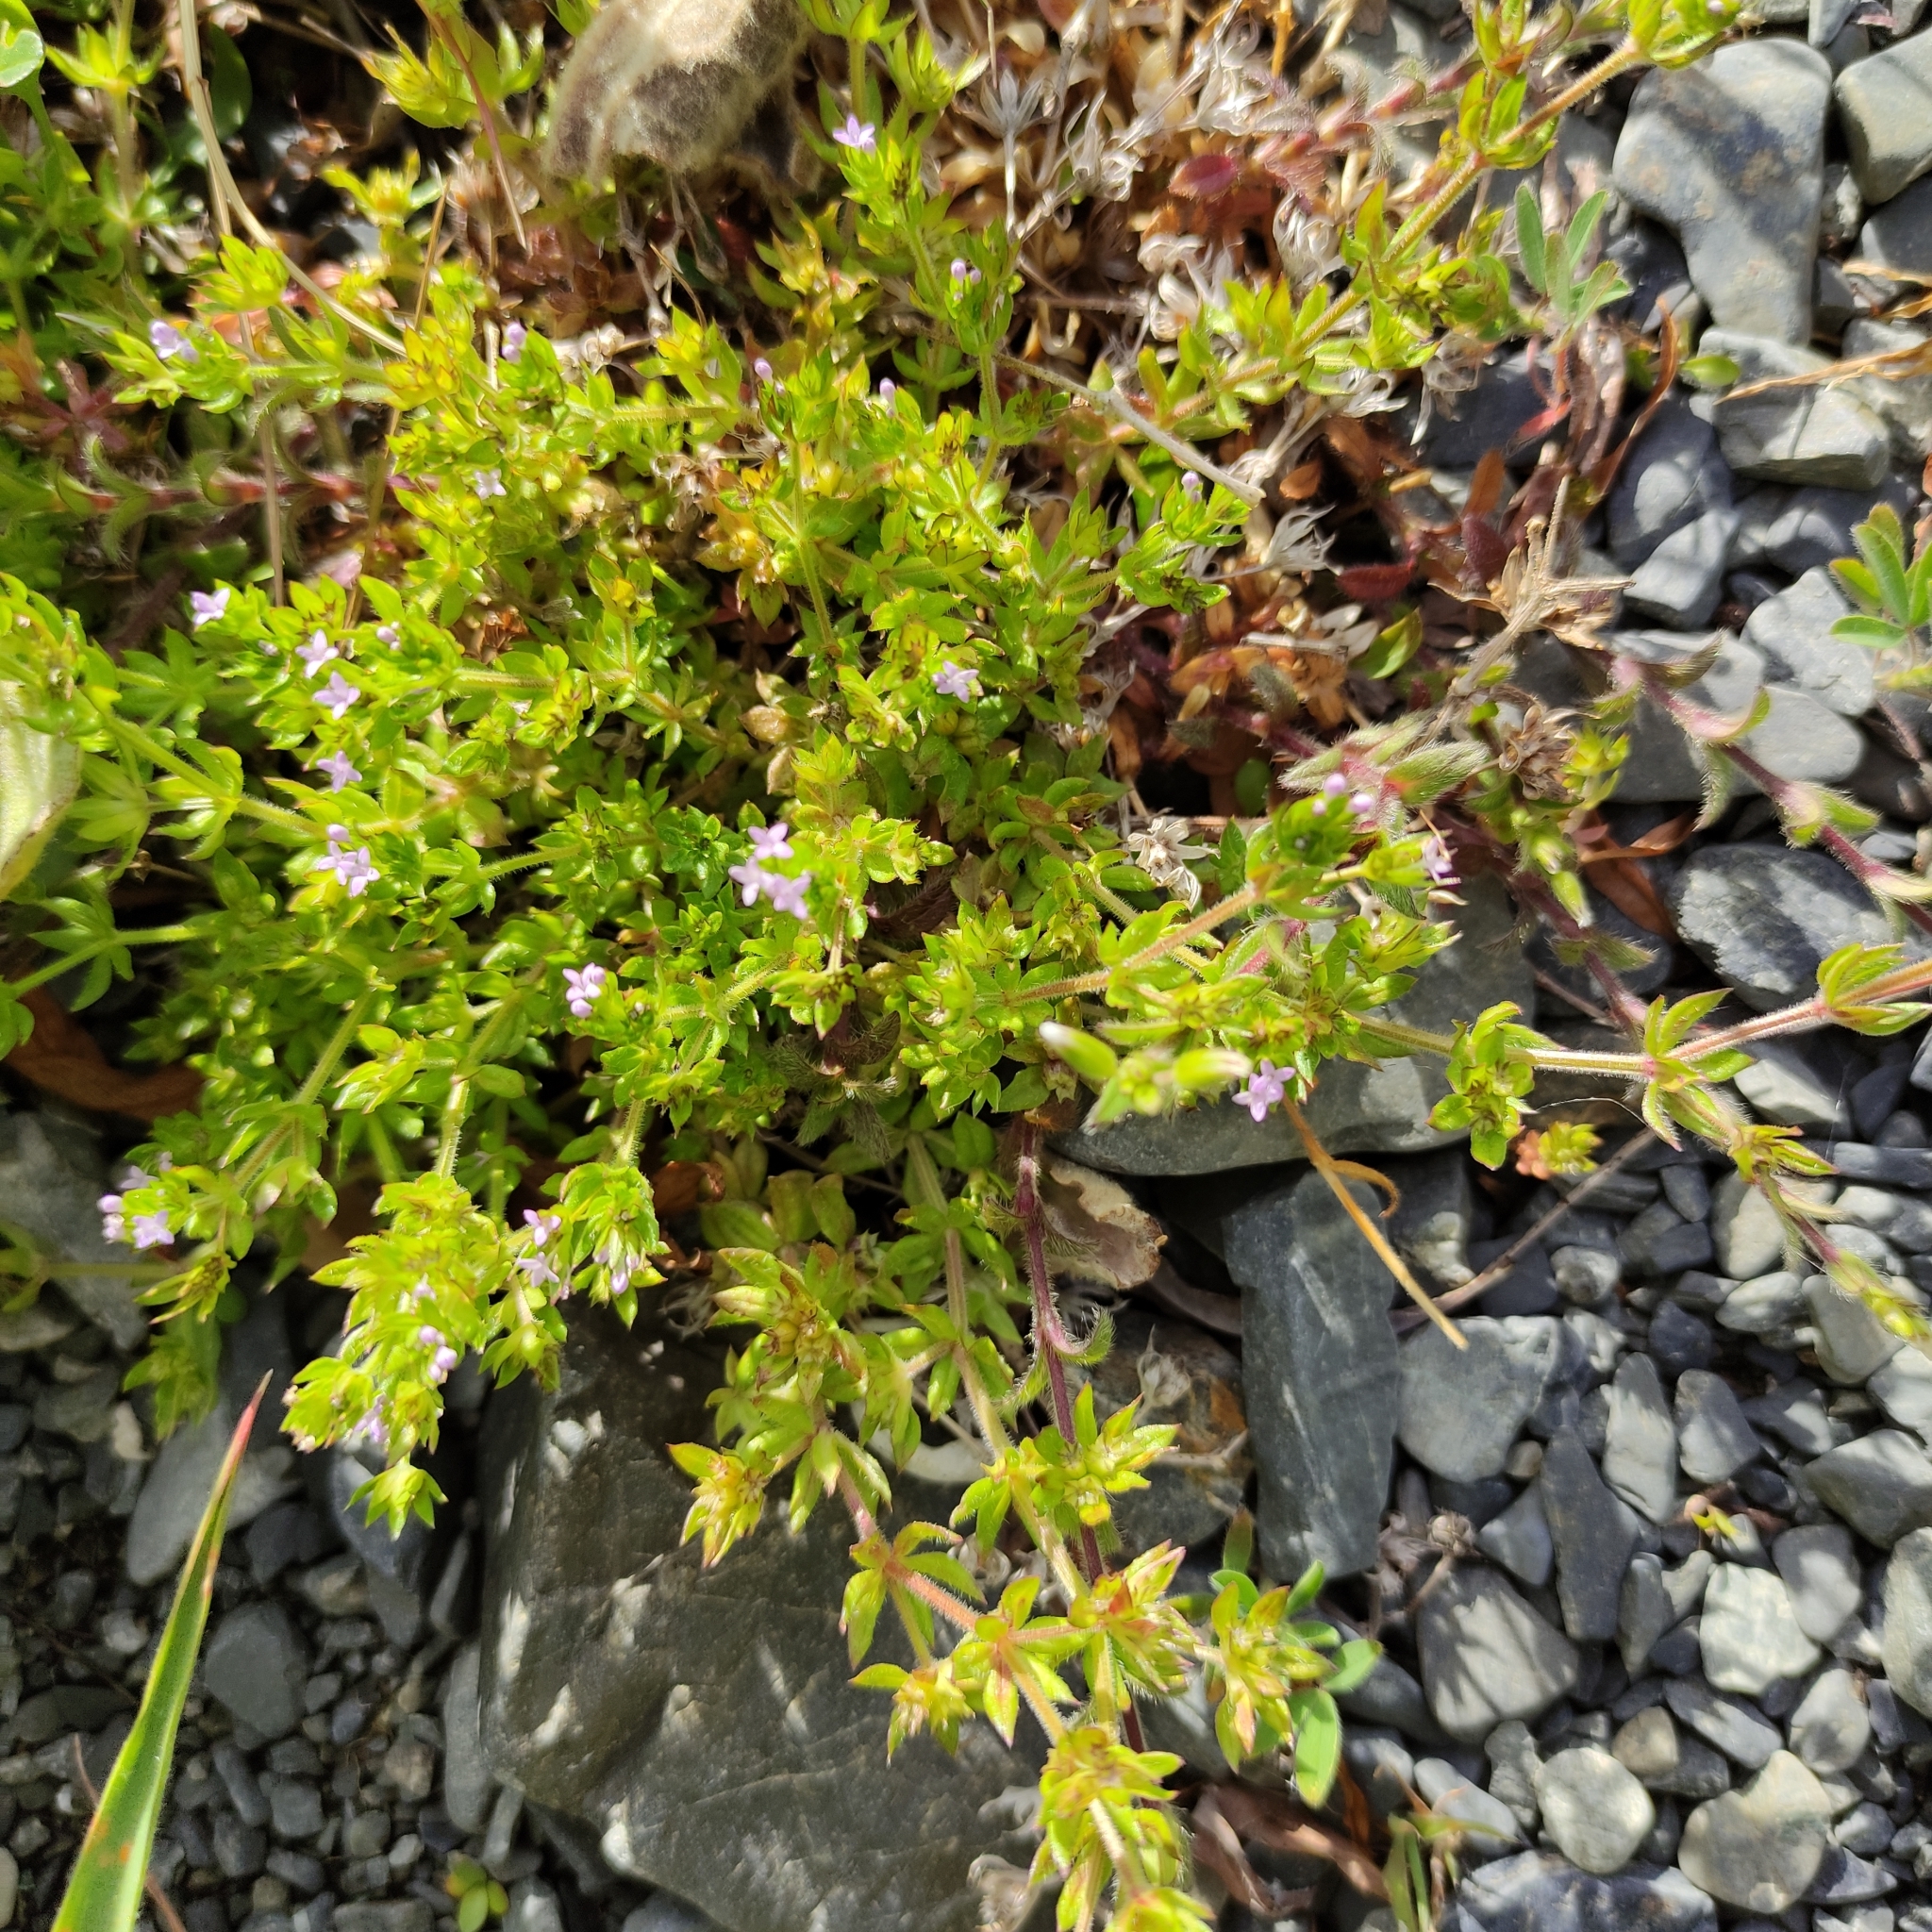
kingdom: Plantae
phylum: Tracheophyta
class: Magnoliopsida
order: Gentianales
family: Rubiaceae
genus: Sherardia
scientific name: Sherardia arvensis
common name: Field madder
